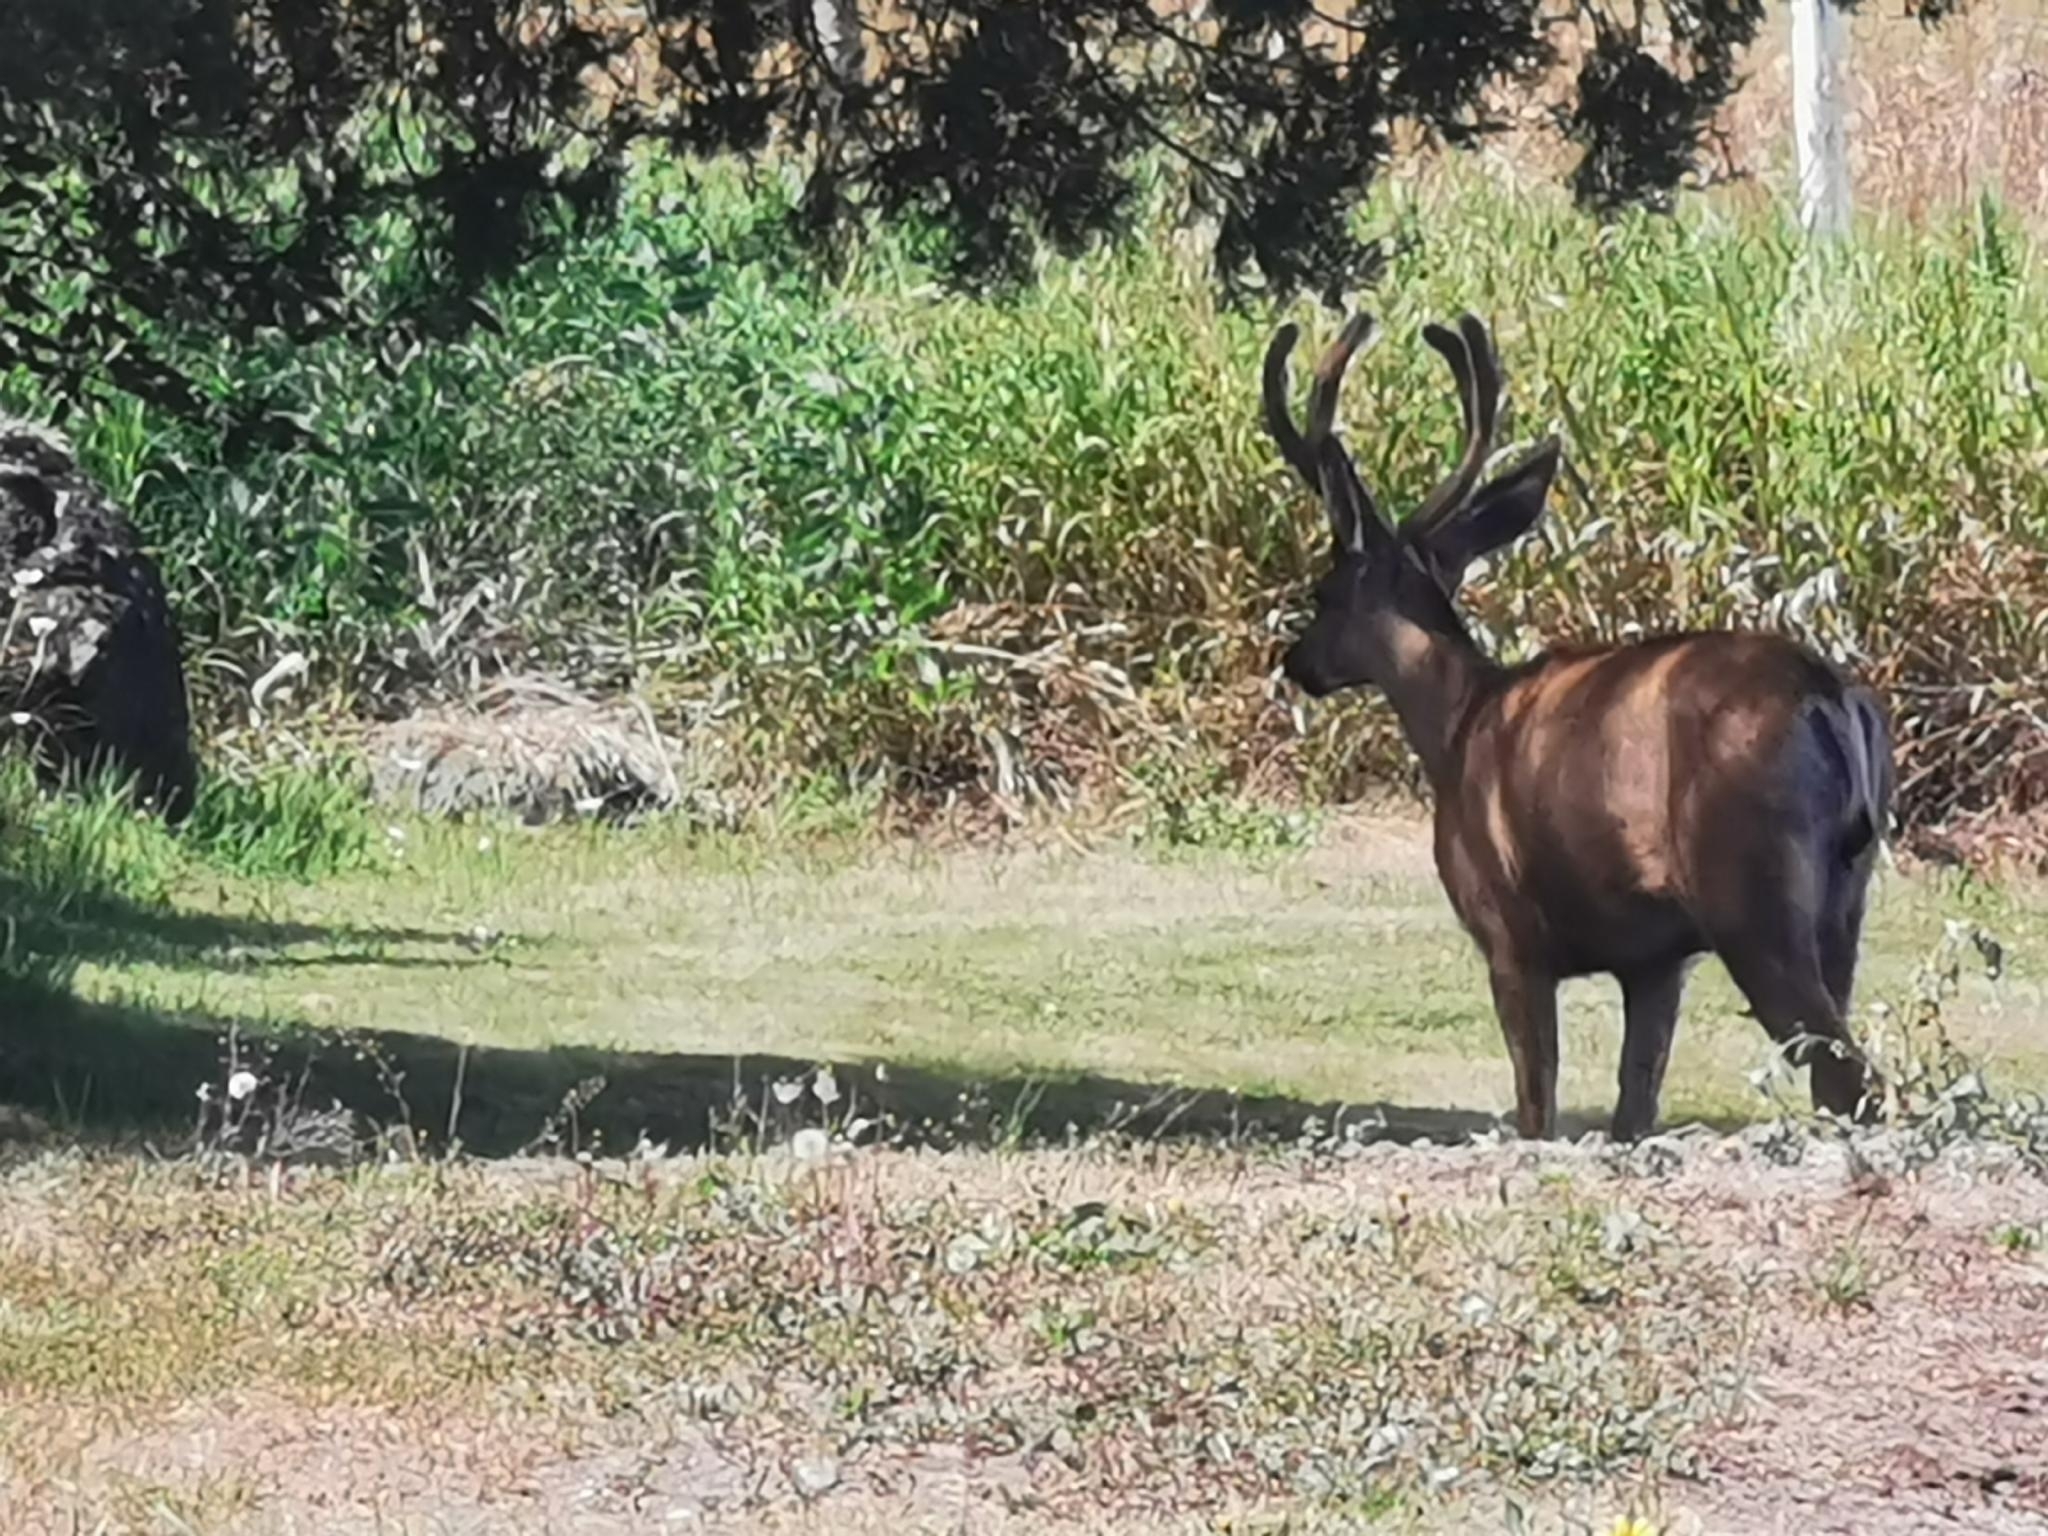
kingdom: Animalia
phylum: Chordata
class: Mammalia
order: Artiodactyla
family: Cervidae
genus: Odocoileus
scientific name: Odocoileus hemionus
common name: Mule deer
